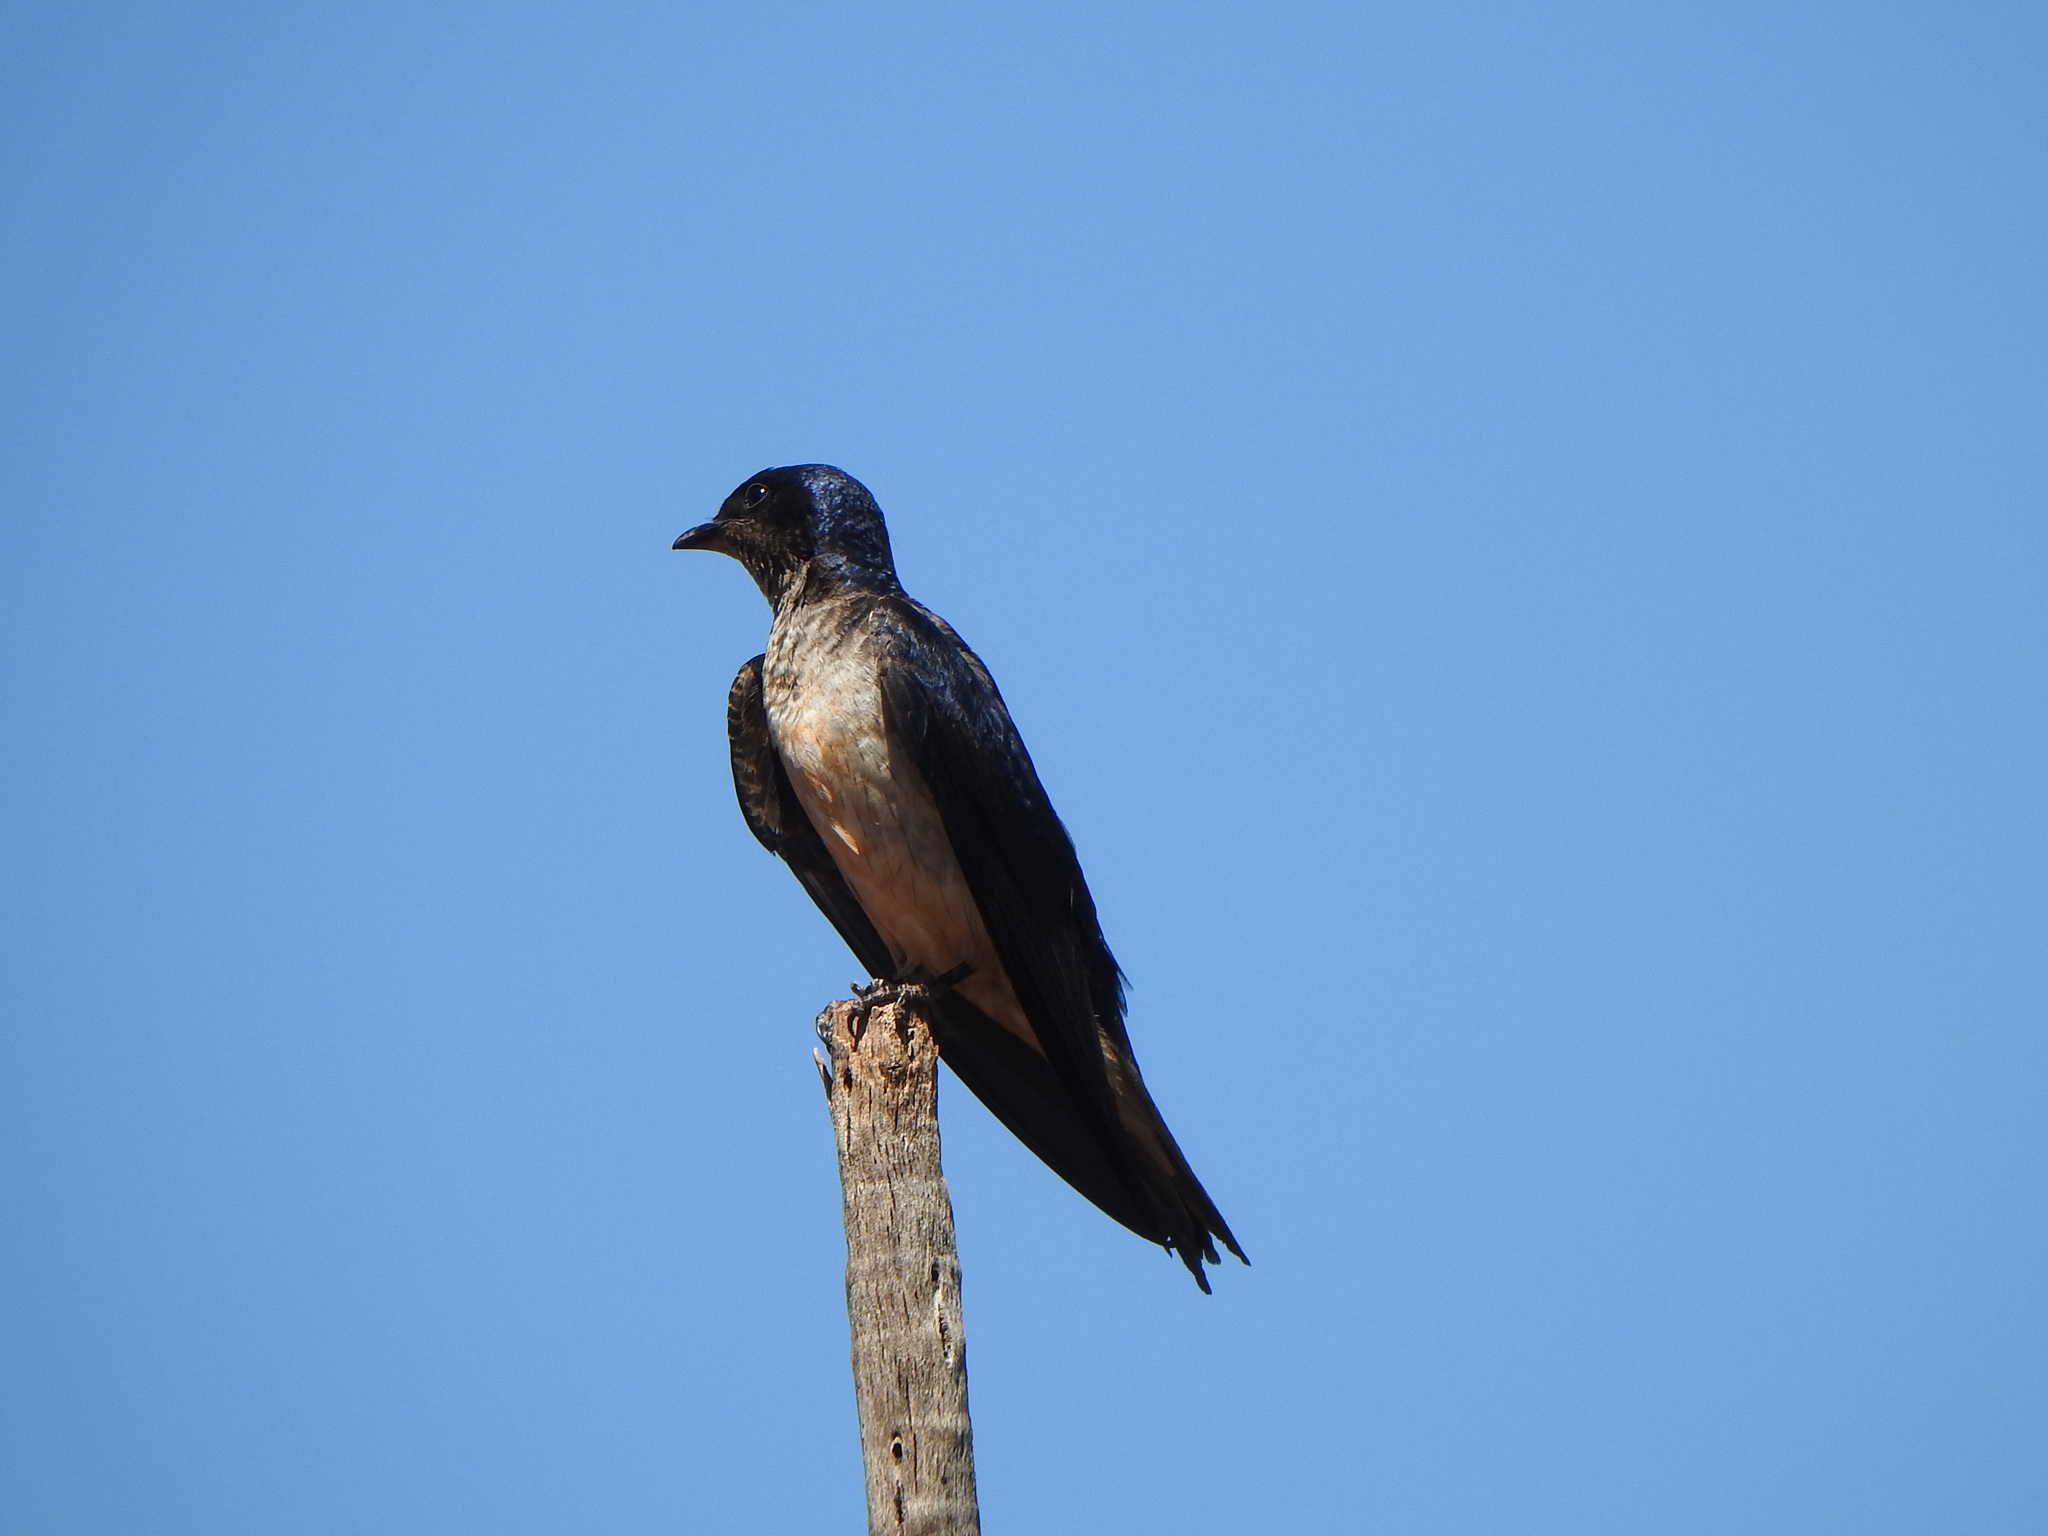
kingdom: Animalia
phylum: Chordata
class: Aves
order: Passeriformes
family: Hirundinidae
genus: Progne
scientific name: Progne chalybea
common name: Grey-breasted martin
